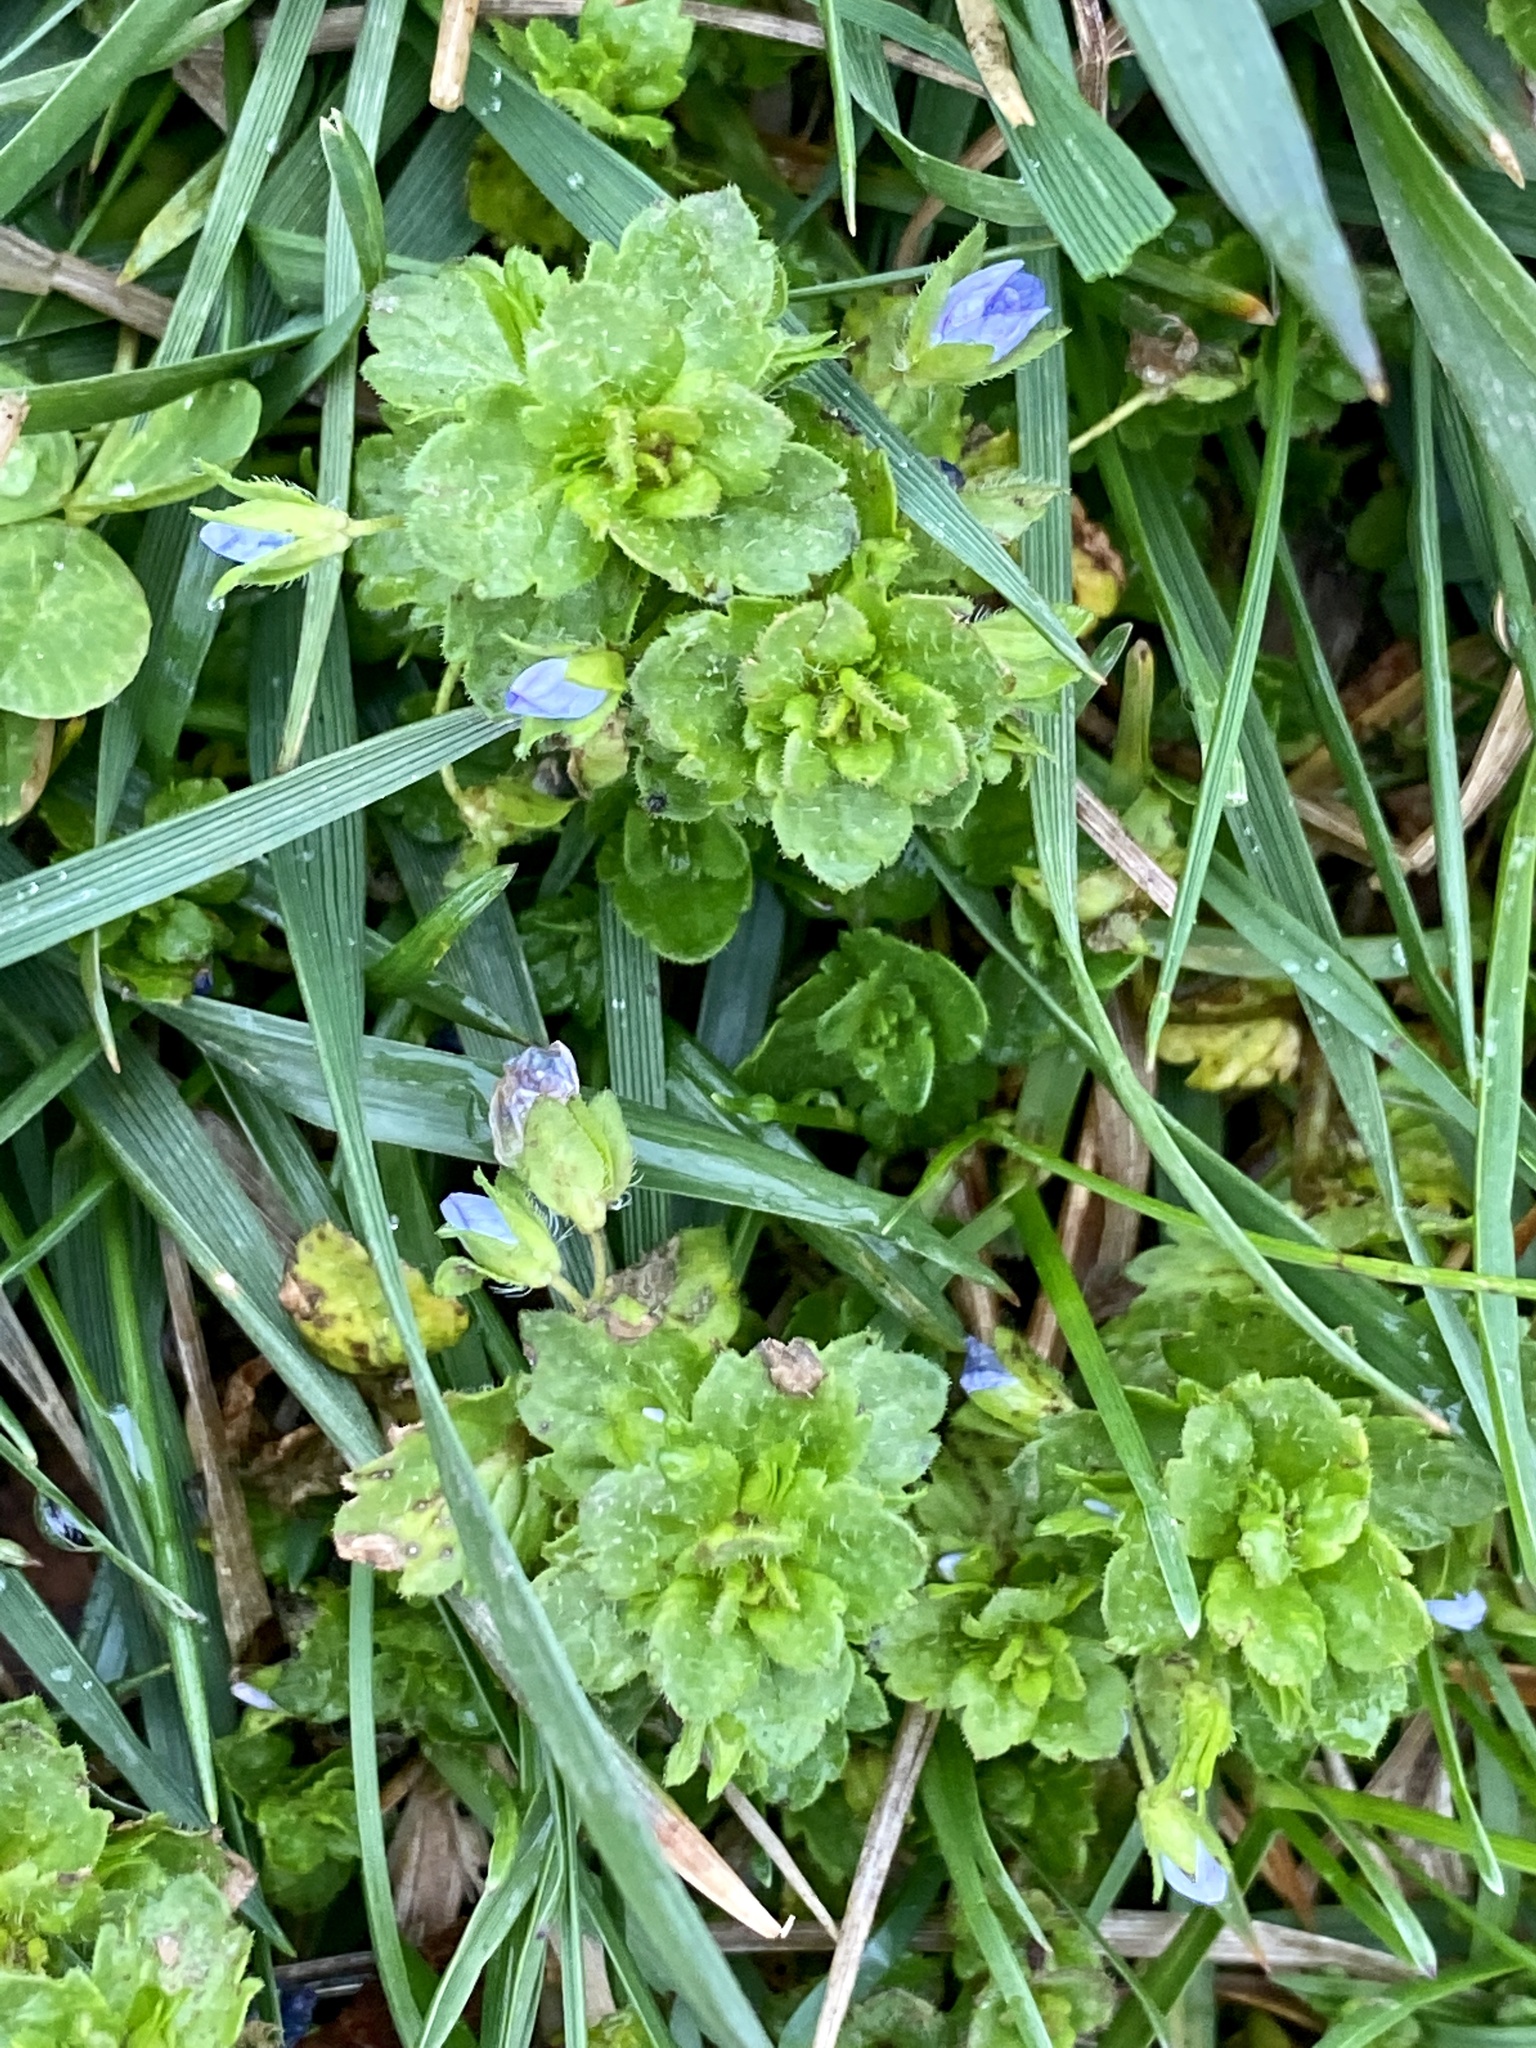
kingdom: Plantae
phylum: Tracheophyta
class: Magnoliopsida
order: Lamiales
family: Plantaginaceae
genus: Veronica
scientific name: Veronica persica
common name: Common field-speedwell
